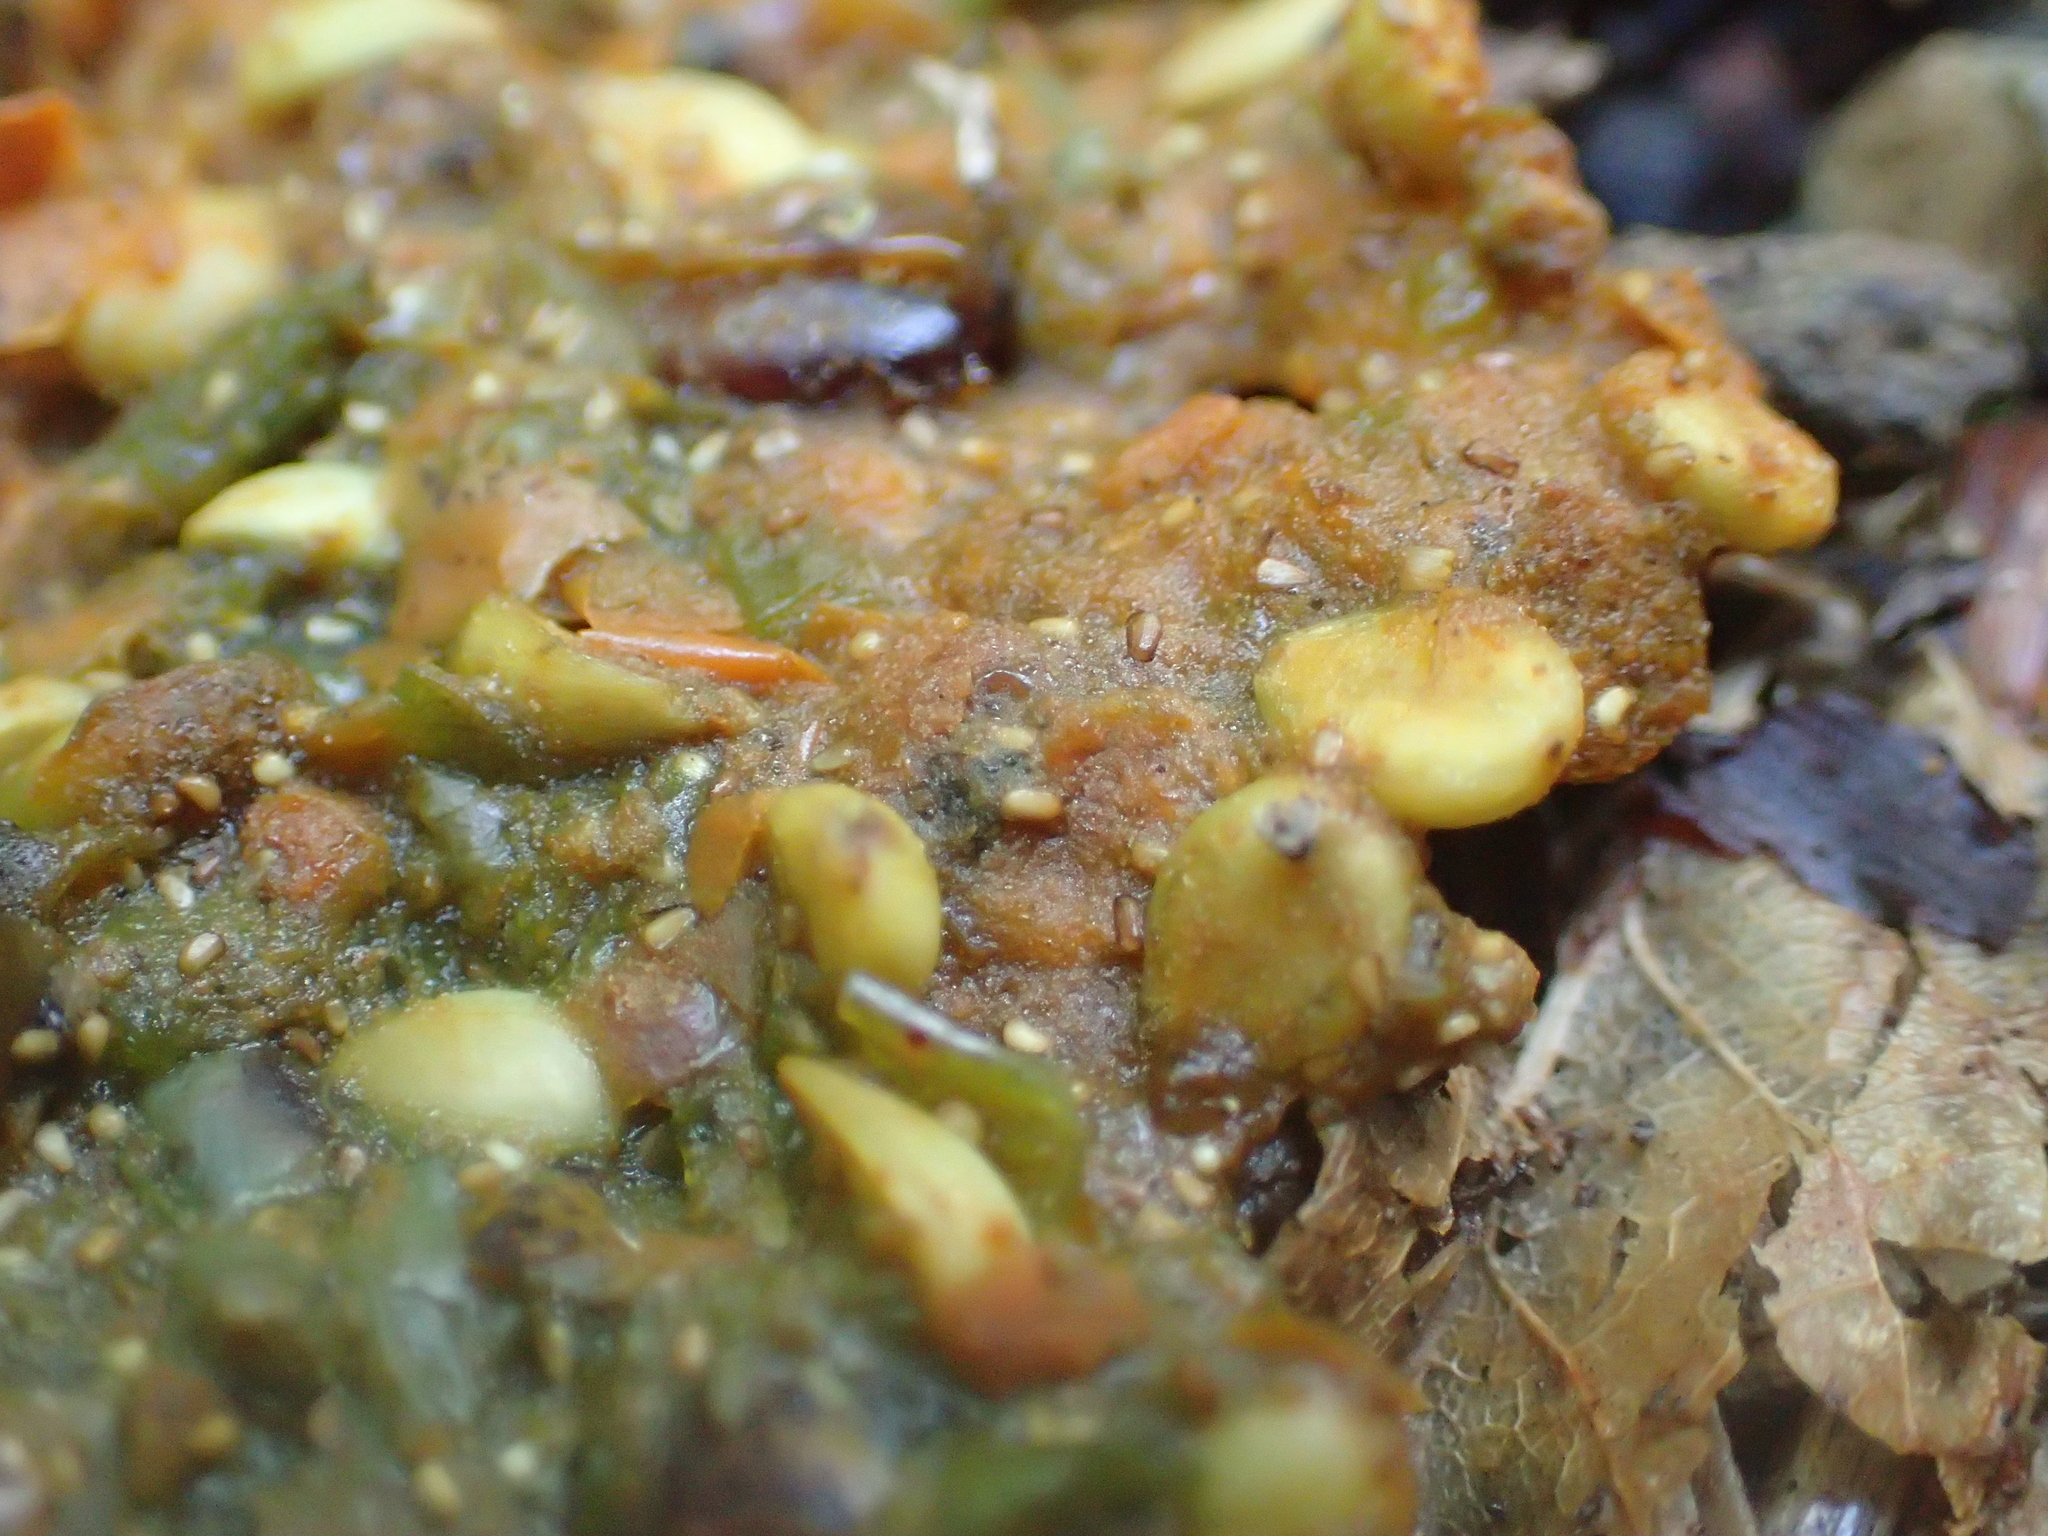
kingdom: Animalia
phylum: Chordata
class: Aves
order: Columbiformes
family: Columbidae
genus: Hemiphaga
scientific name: Hemiphaga novaeseelandiae
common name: New zealand pigeon
